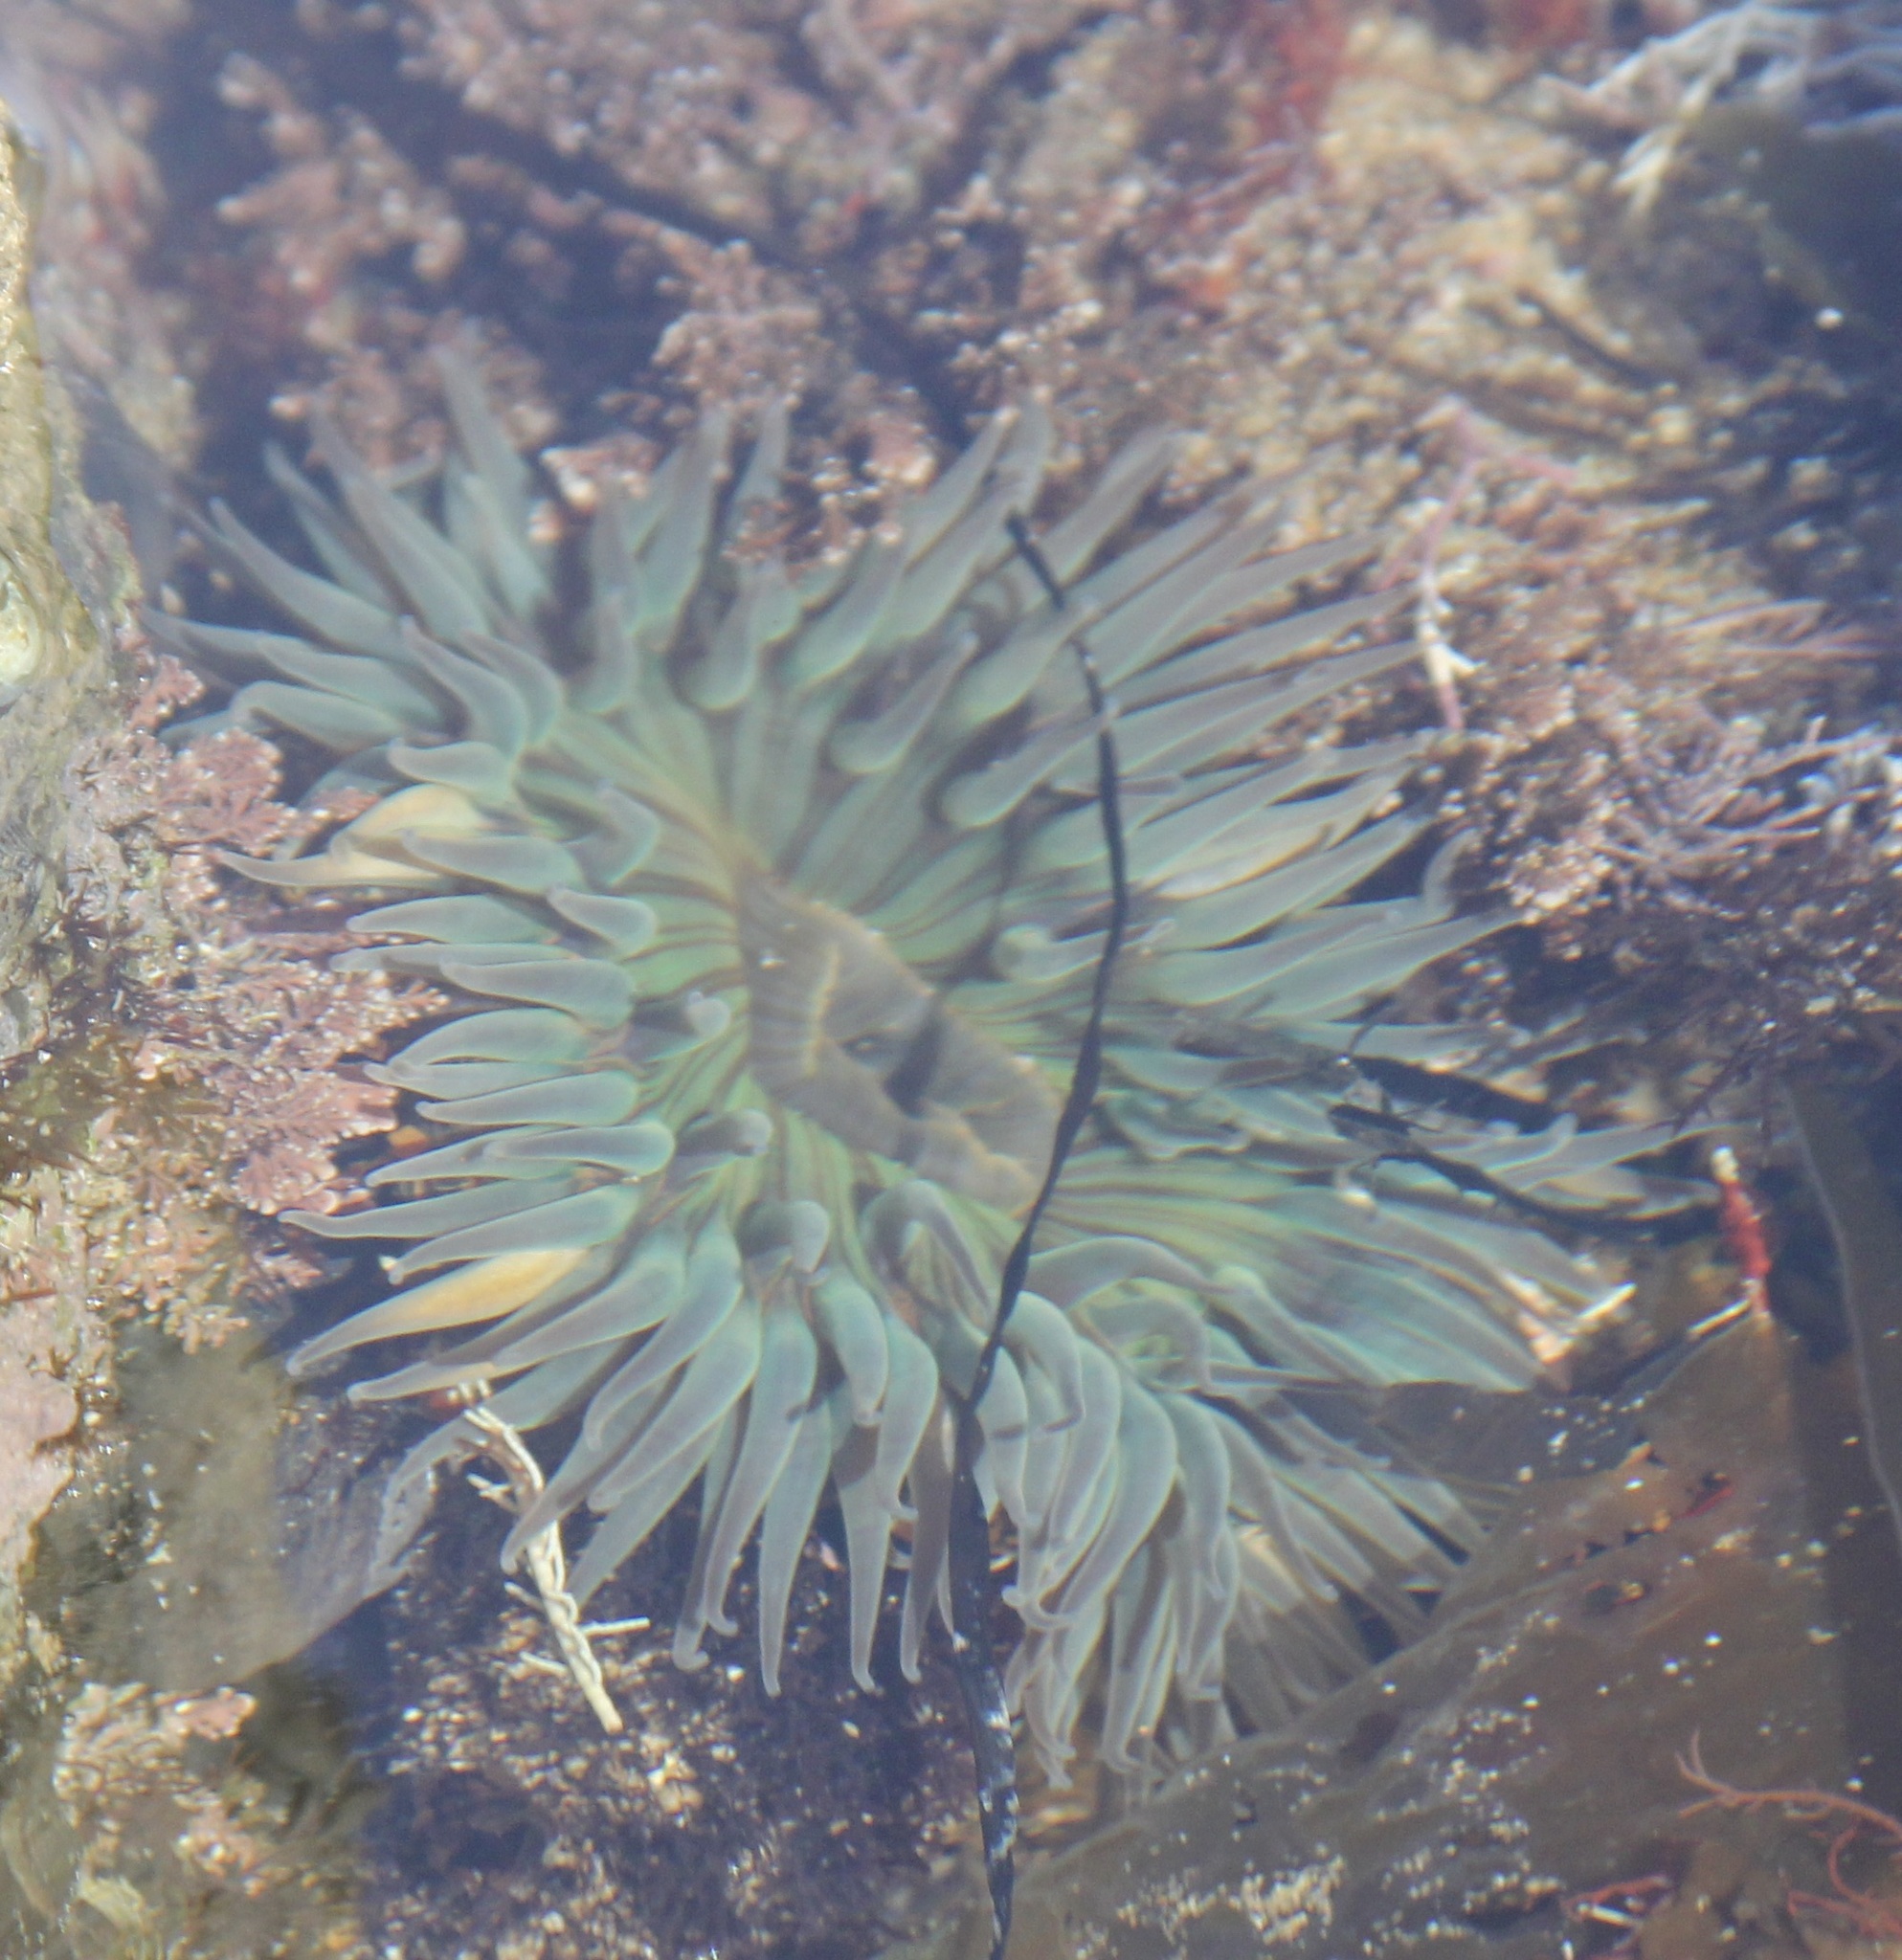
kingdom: Animalia
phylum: Cnidaria
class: Anthozoa
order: Actiniaria
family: Actiniidae
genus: Anthopleura
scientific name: Anthopleura sola
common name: Sun anemone
